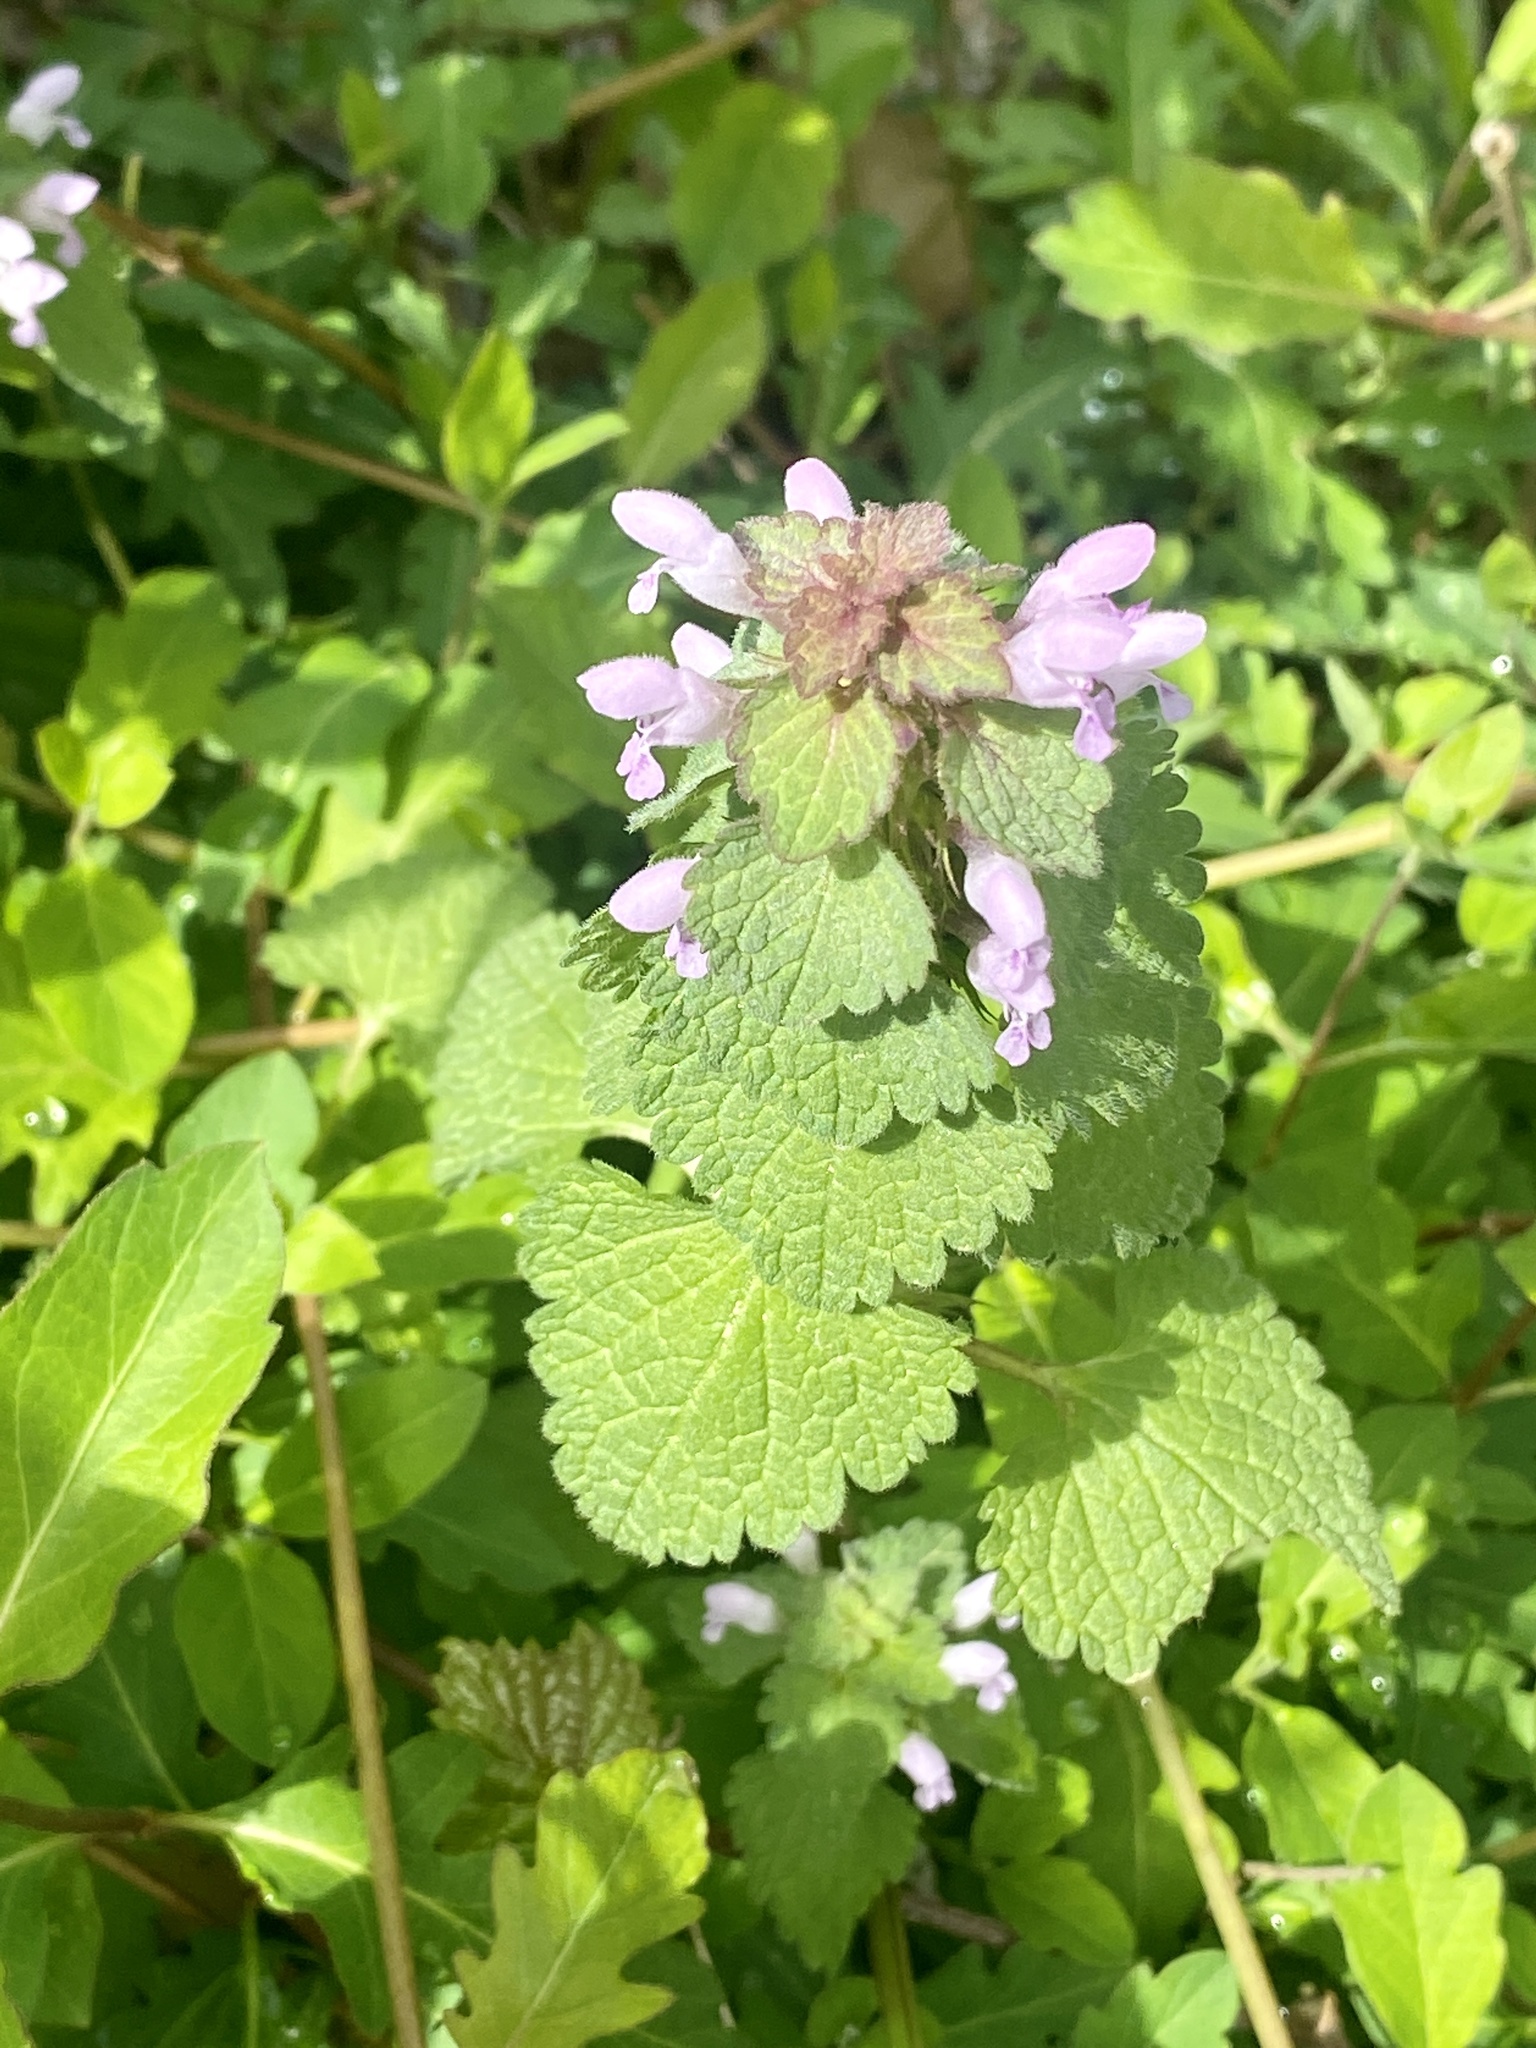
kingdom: Plantae
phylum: Tracheophyta
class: Magnoliopsida
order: Lamiales
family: Lamiaceae
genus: Lamium
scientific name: Lamium purpureum
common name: Red dead-nettle
